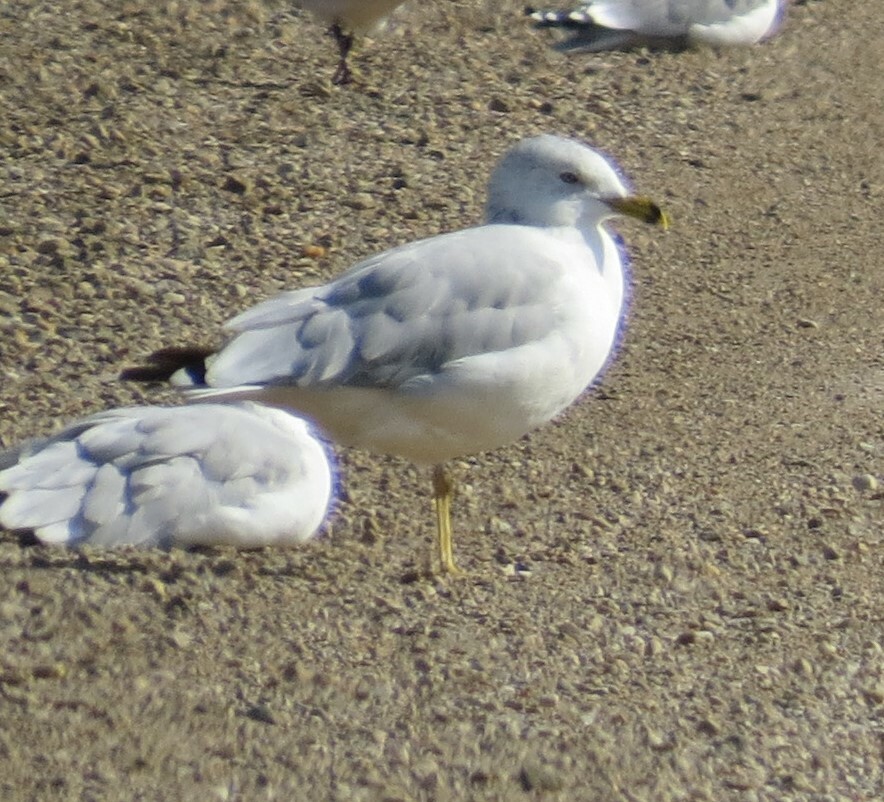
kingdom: Animalia
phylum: Chordata
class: Aves
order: Charadriiformes
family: Laridae
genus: Larus
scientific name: Larus delawarensis
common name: Ring-billed gull
